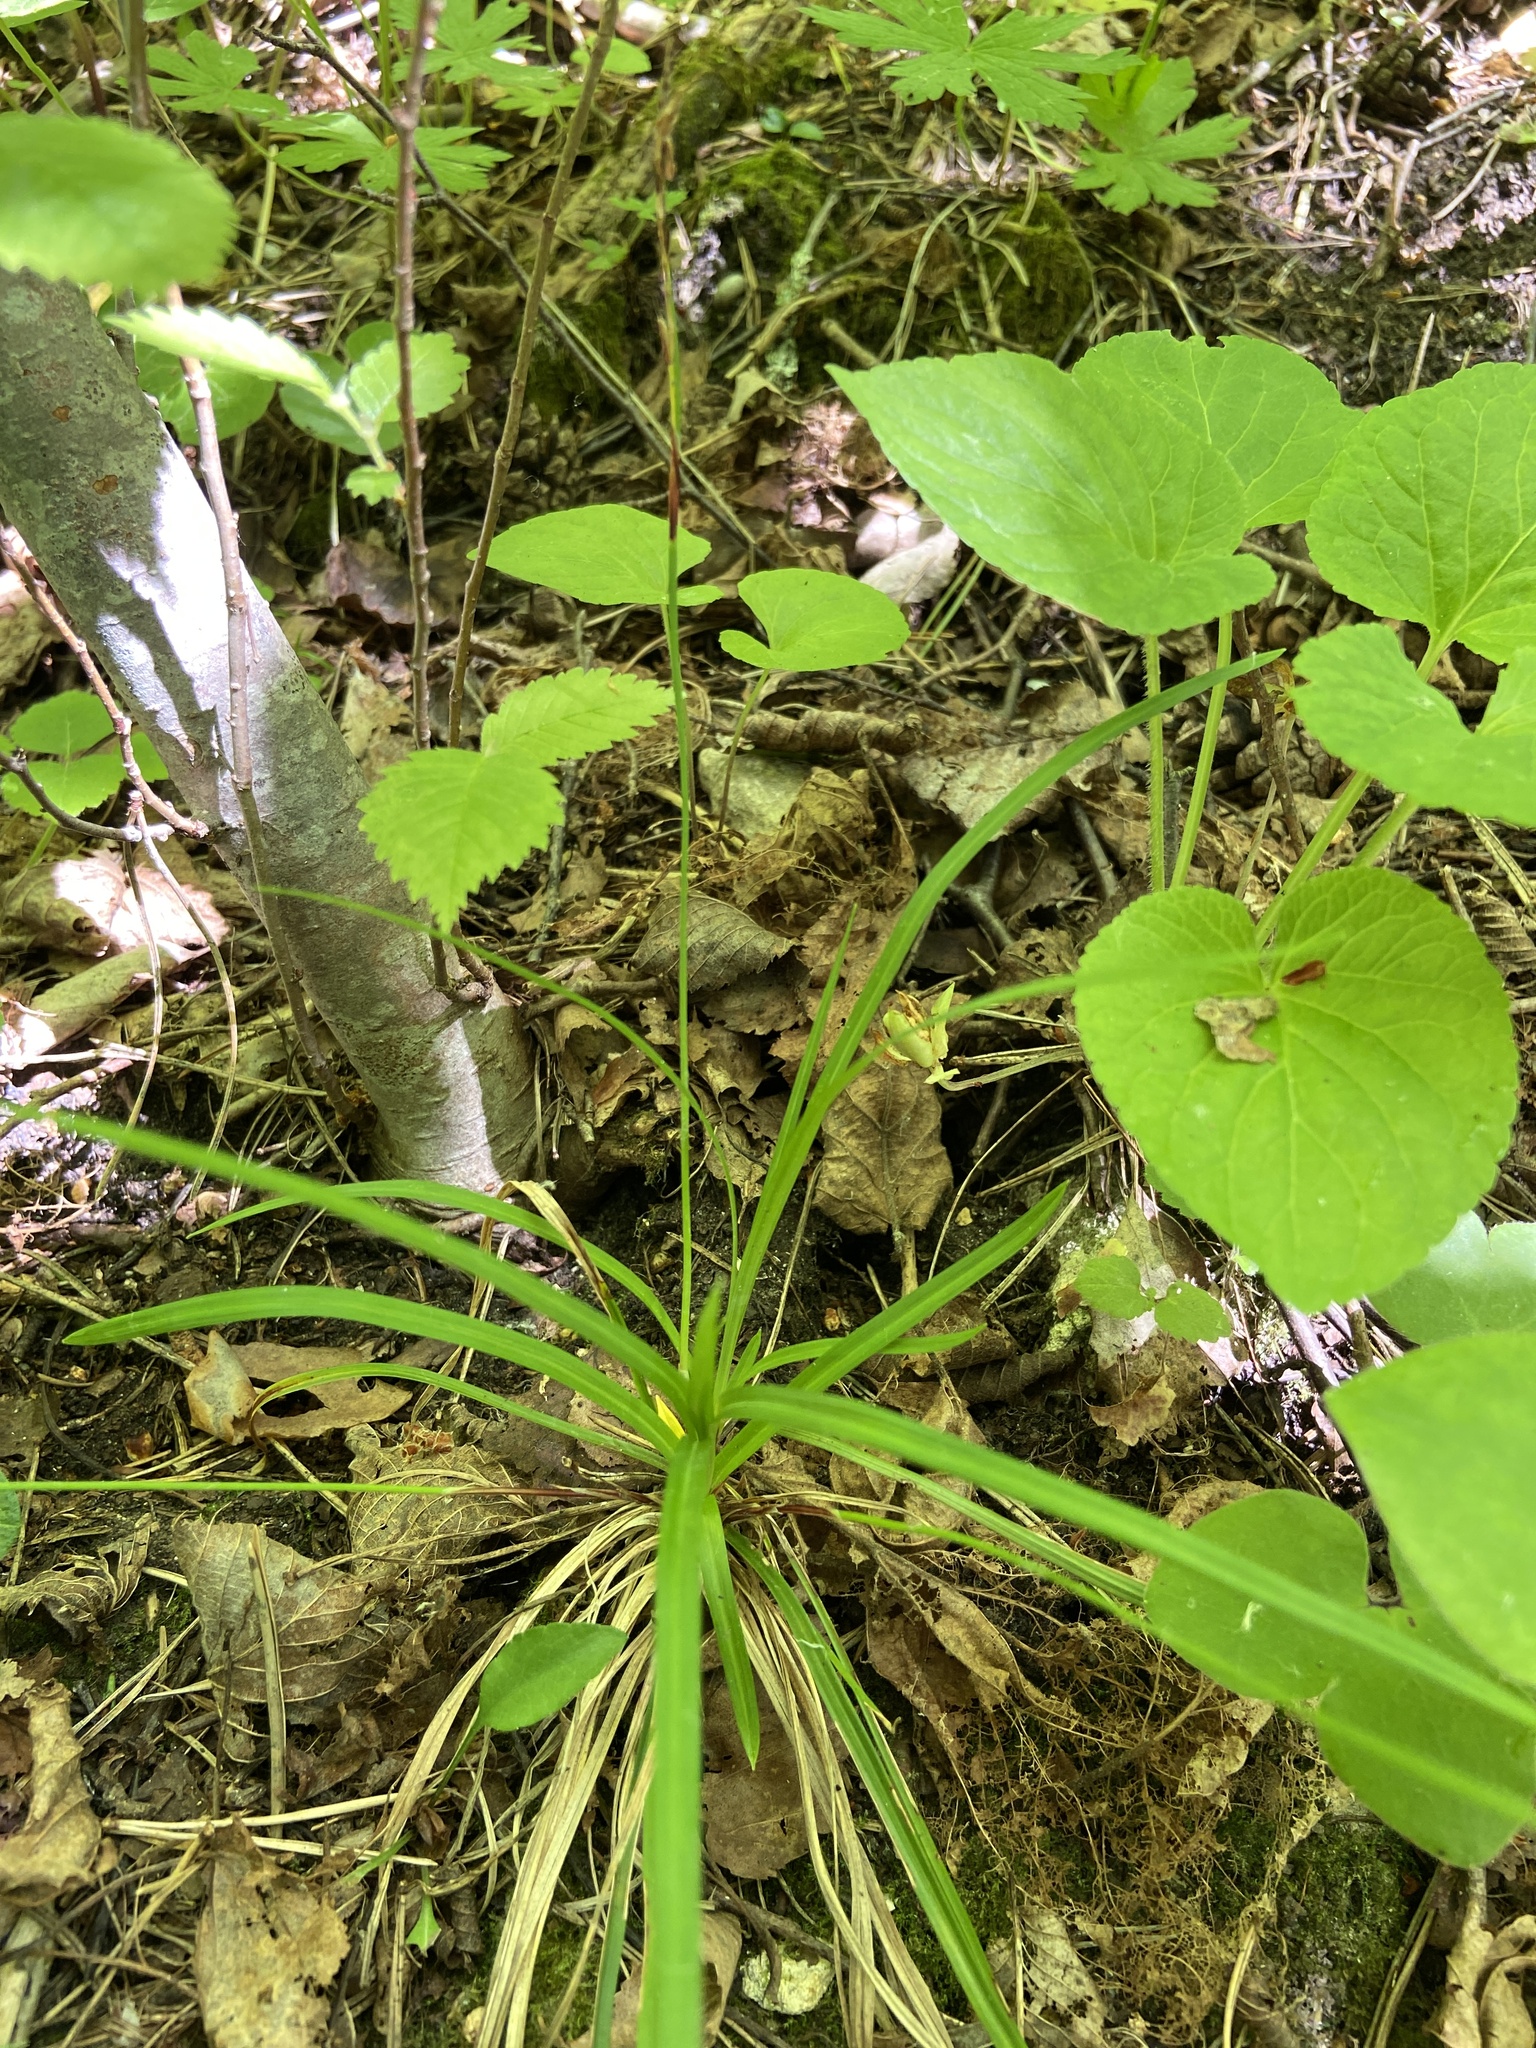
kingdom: Plantae
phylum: Tracheophyta
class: Liliopsida
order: Poales
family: Cyperaceae
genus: Carex
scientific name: Carex digitata
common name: Fingered sedge
